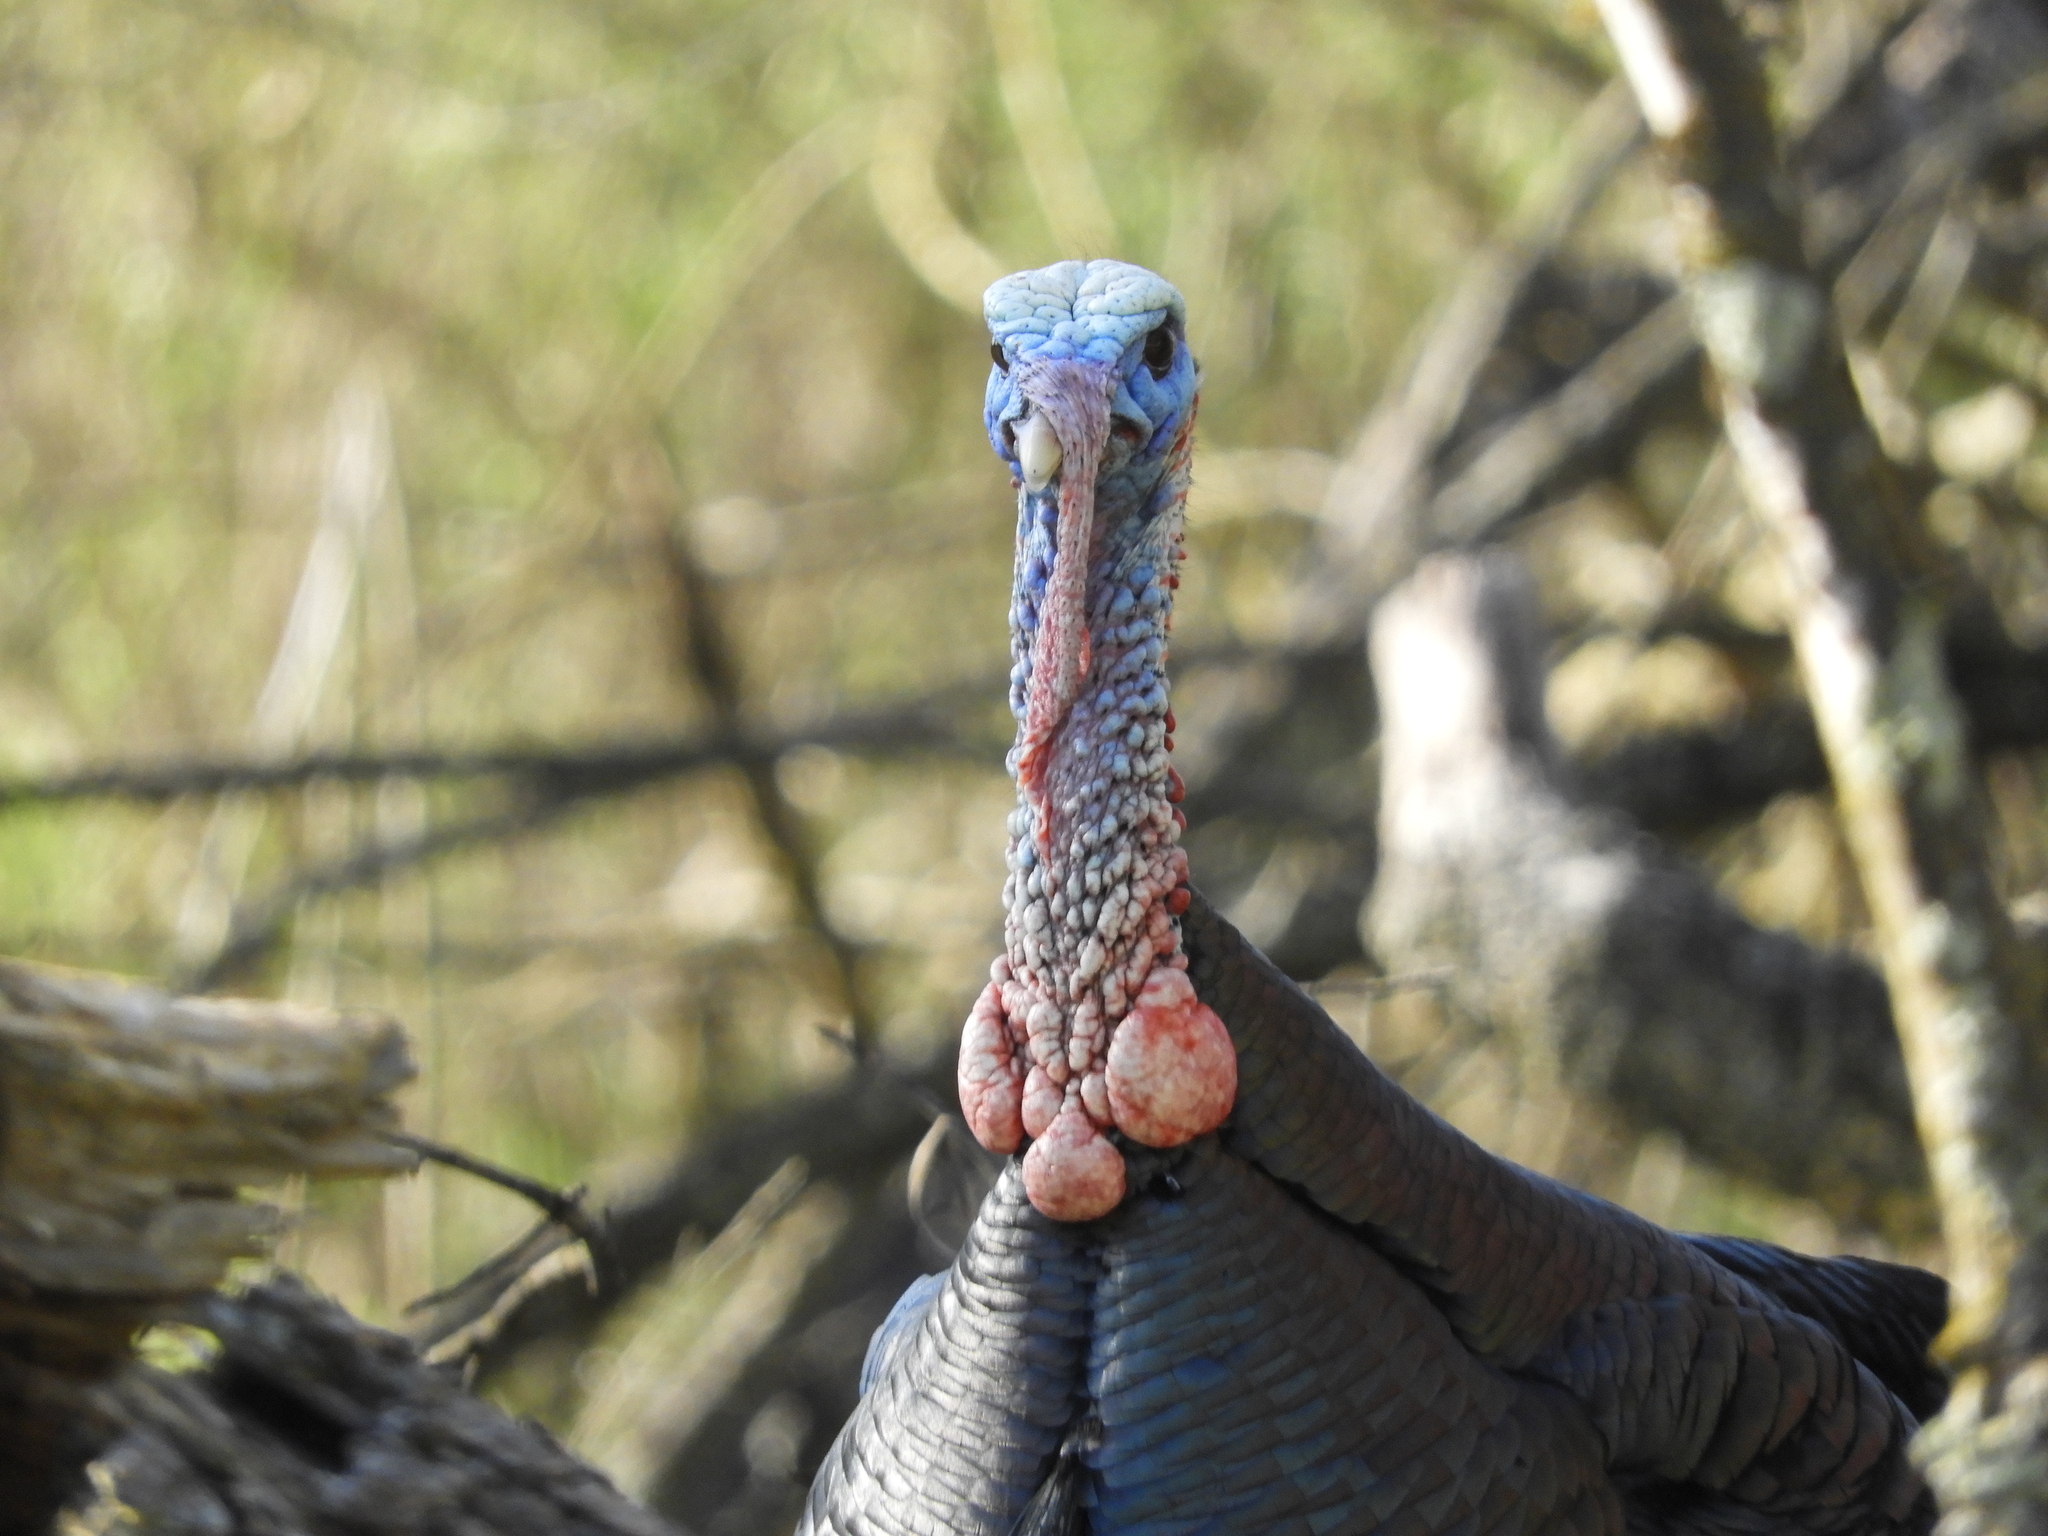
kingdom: Animalia
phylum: Chordata
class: Aves
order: Galliformes
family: Phasianidae
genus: Meleagris
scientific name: Meleagris gallopavo
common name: Wild turkey
